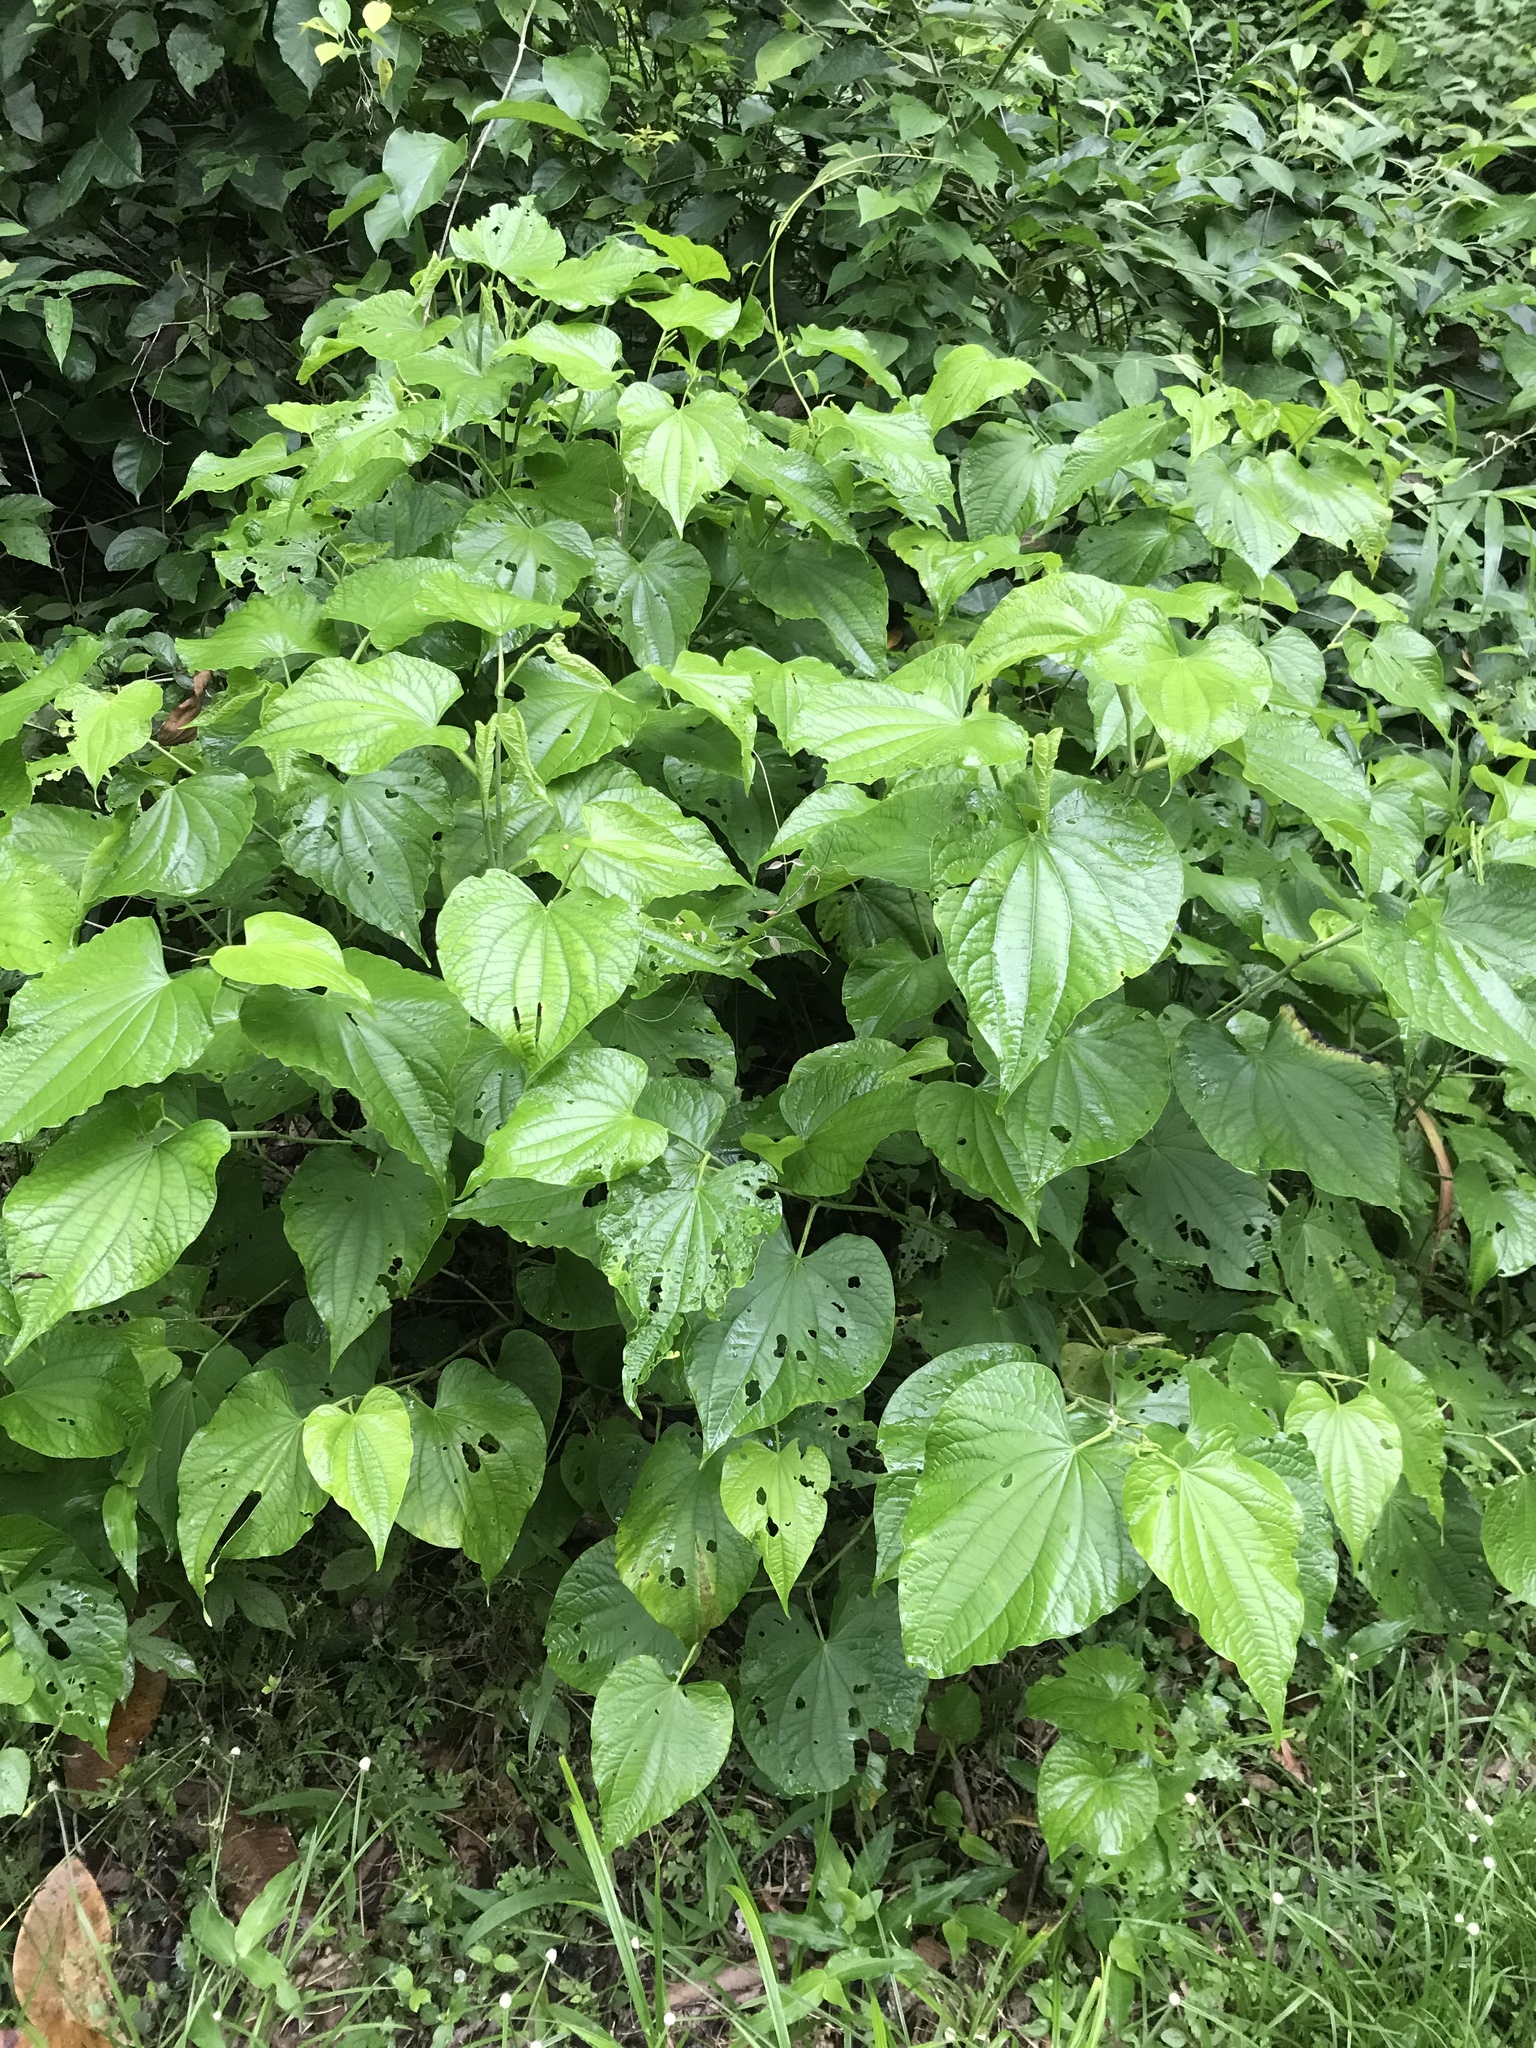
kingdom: Plantae
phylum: Tracheophyta
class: Magnoliopsida
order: Piperales
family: Piperaceae
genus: Piper
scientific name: Piper marginatum
